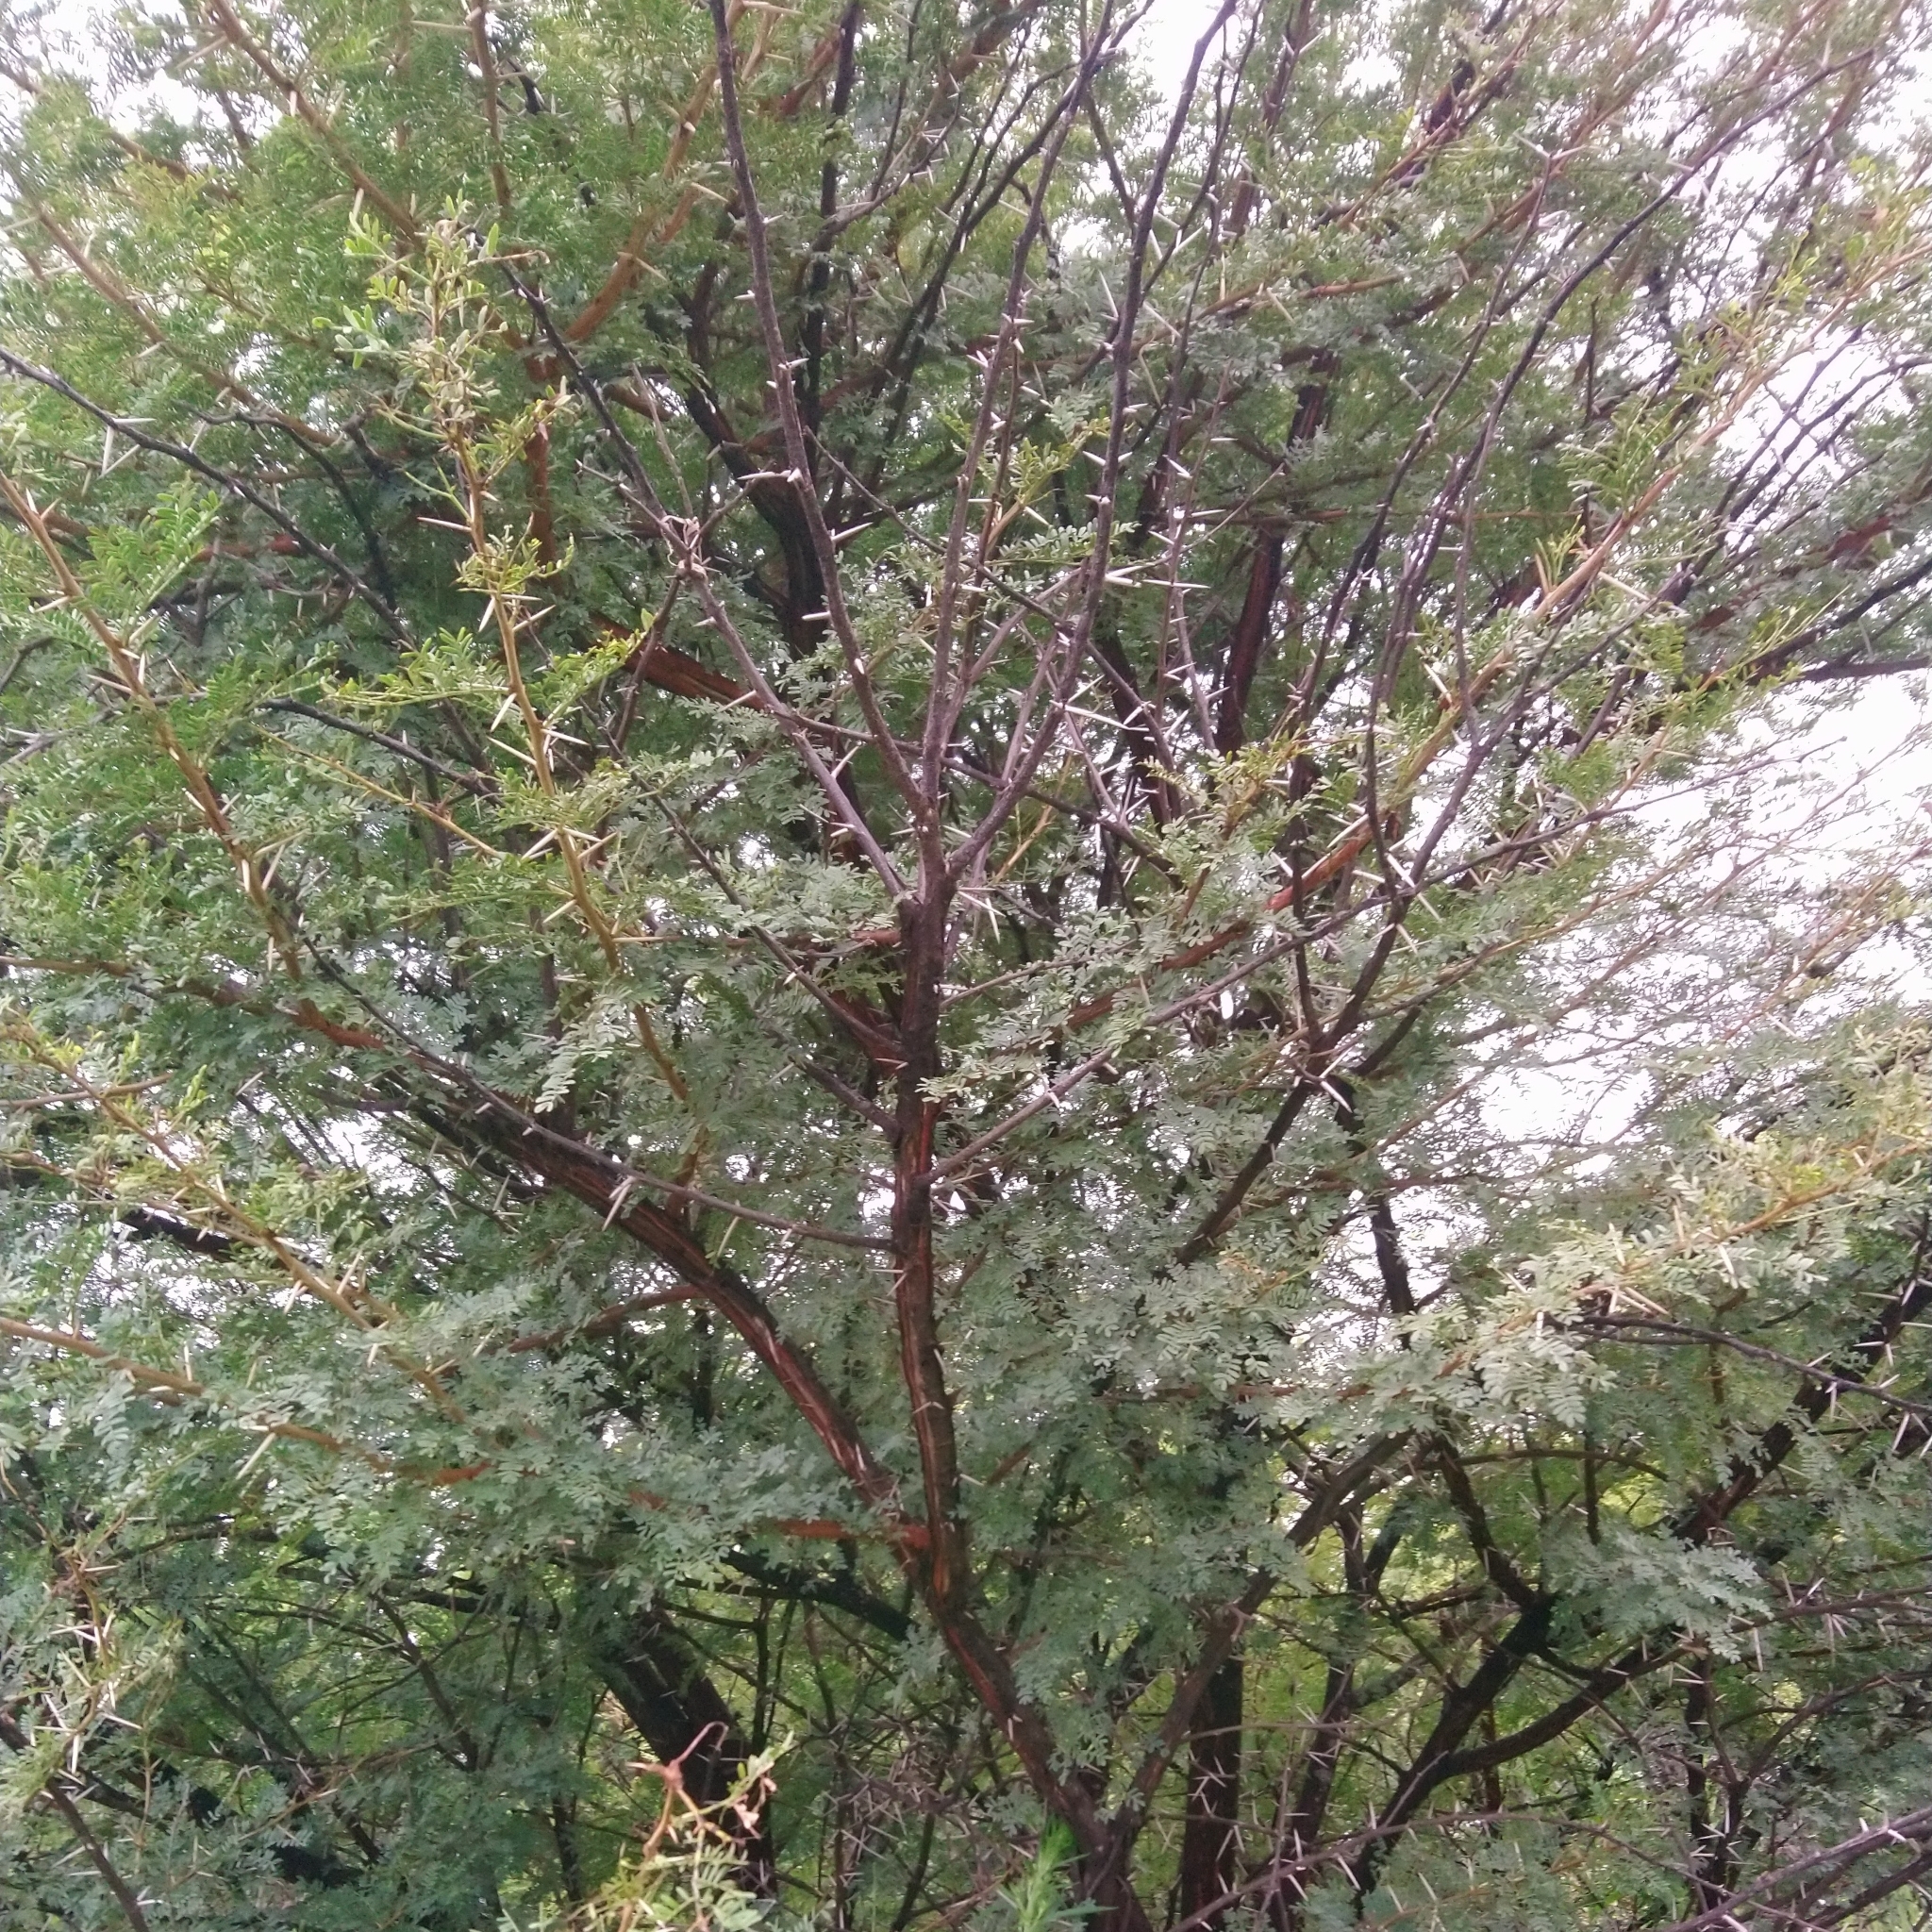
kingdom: Plantae
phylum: Tracheophyta
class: Magnoliopsida
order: Fabales
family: Fabaceae
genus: Vachellia
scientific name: Vachellia karroo
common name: Sweet thorn
